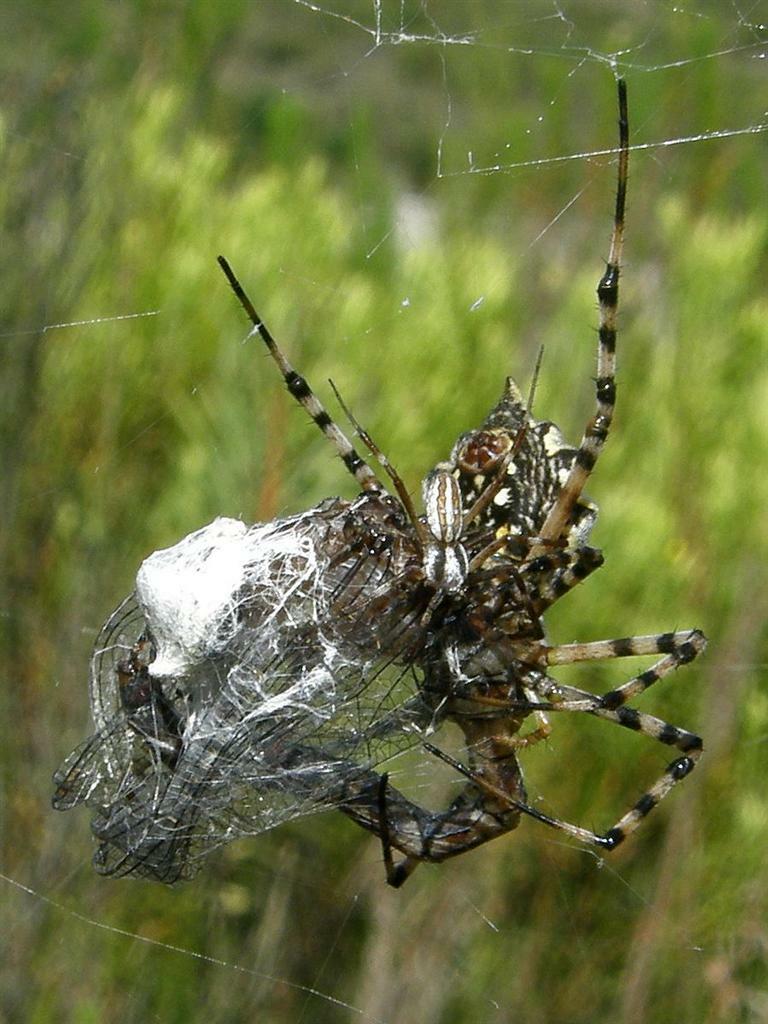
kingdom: Animalia
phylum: Arthropoda
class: Arachnida
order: Araneae
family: Araneidae
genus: Argiope
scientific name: Argiope australis
